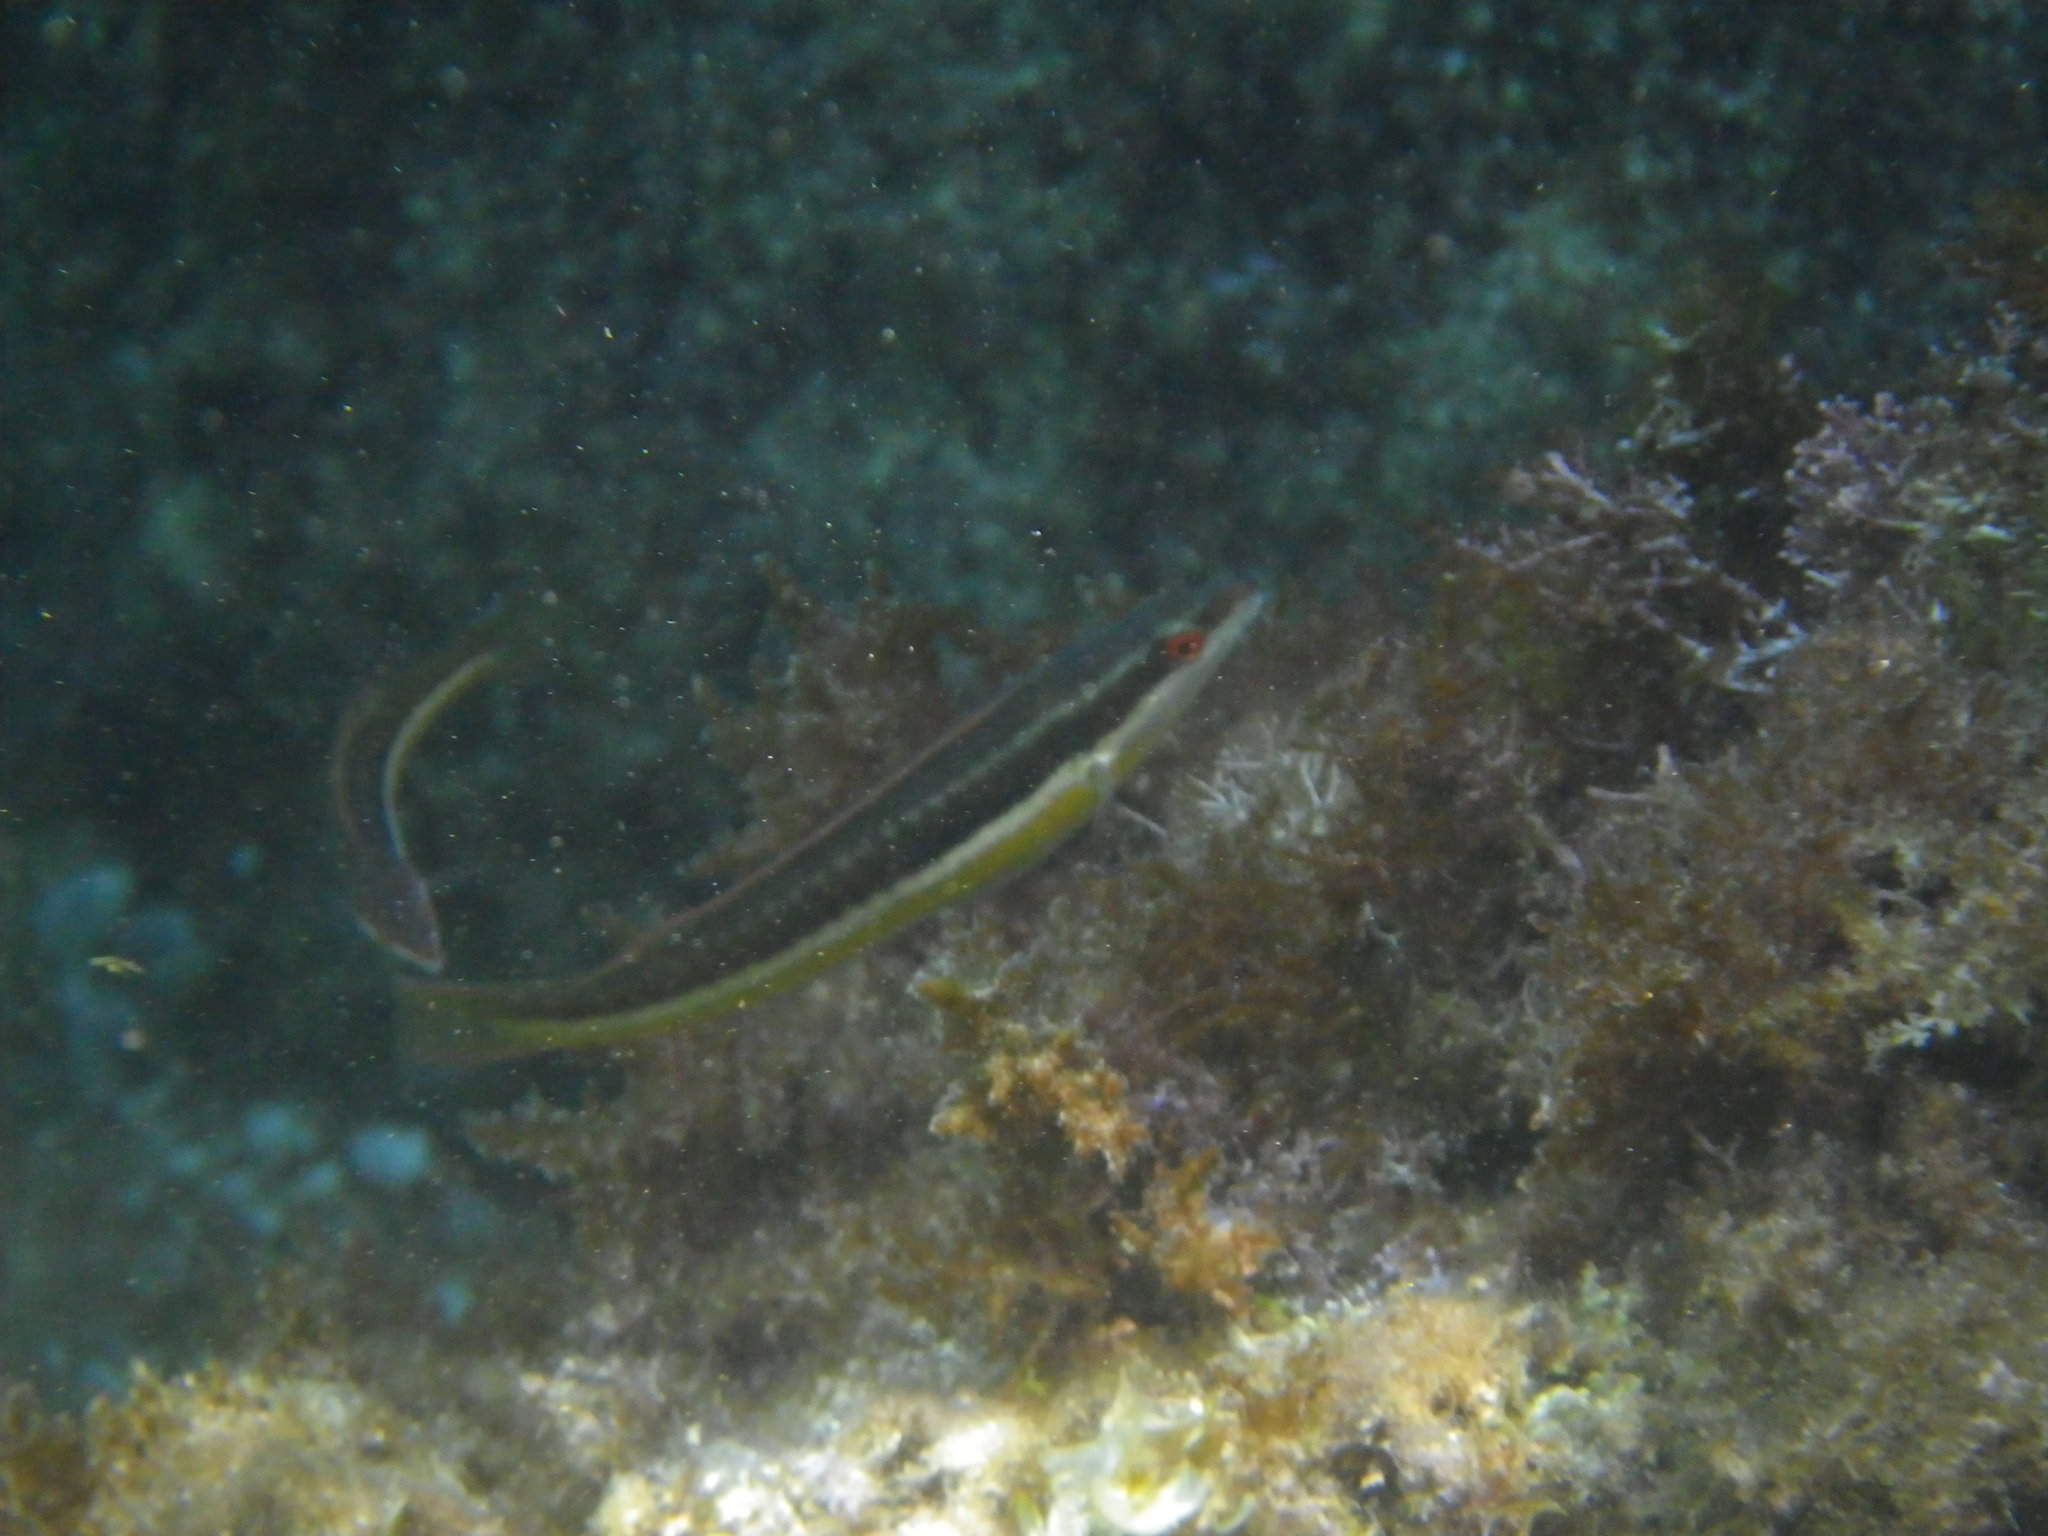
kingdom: Animalia
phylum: Chordata
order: Perciformes
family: Labridae
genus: Coris
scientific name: Coris julis
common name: Rainbow wrasse
